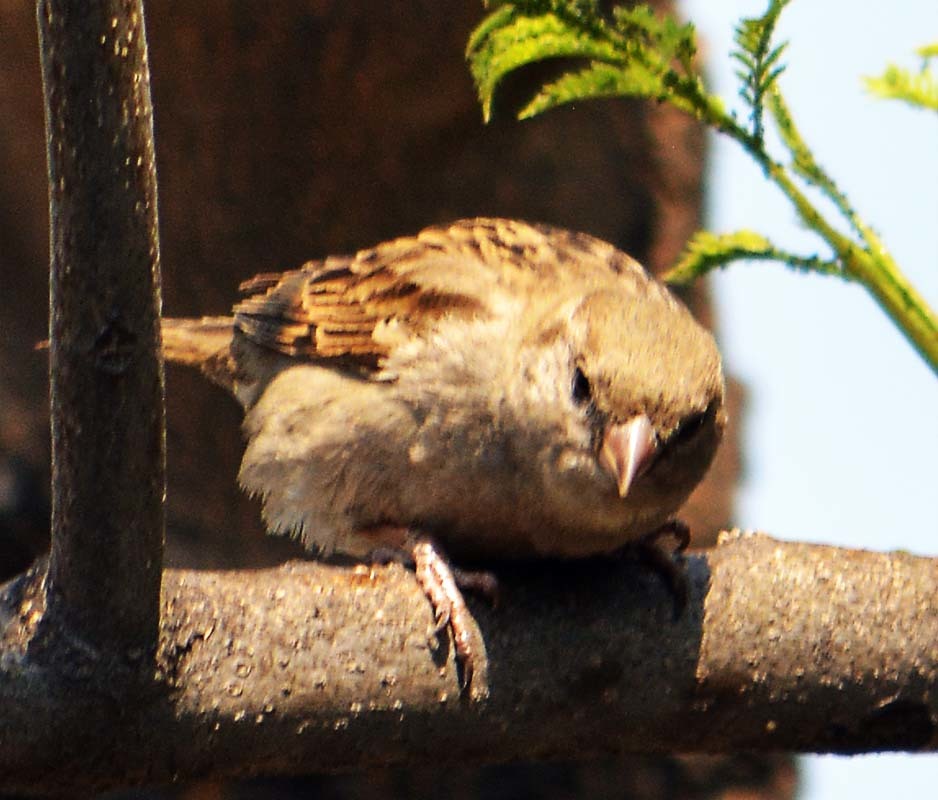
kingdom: Animalia
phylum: Chordata
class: Aves
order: Passeriformes
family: Passeridae
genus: Passer
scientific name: Passer domesticus
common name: House sparrow
